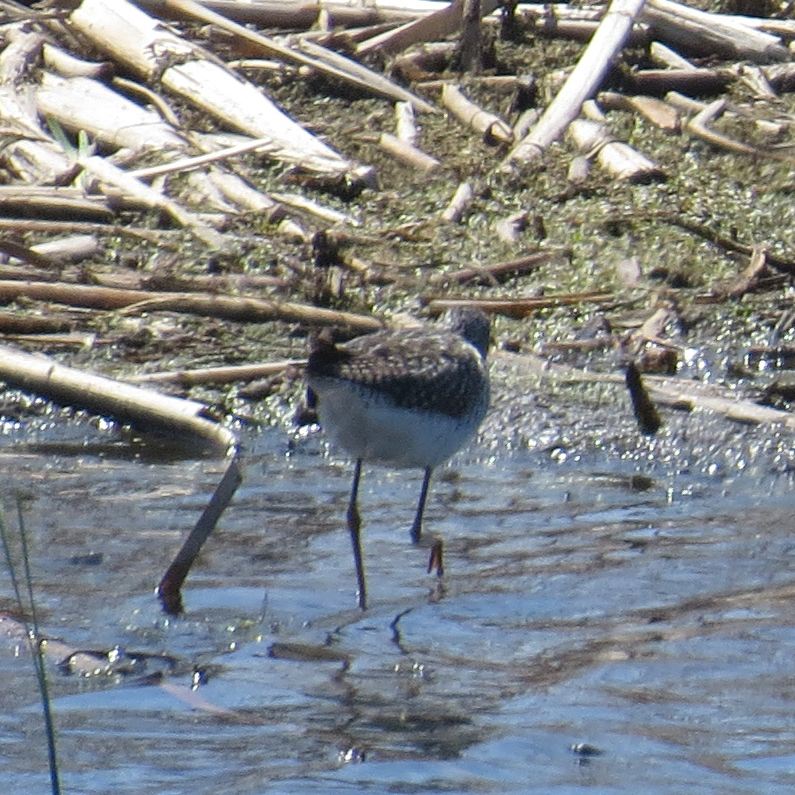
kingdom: Animalia
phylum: Chordata
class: Aves
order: Charadriiformes
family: Scolopacidae
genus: Tringa
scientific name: Tringa flavipes
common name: Lesser yellowlegs
